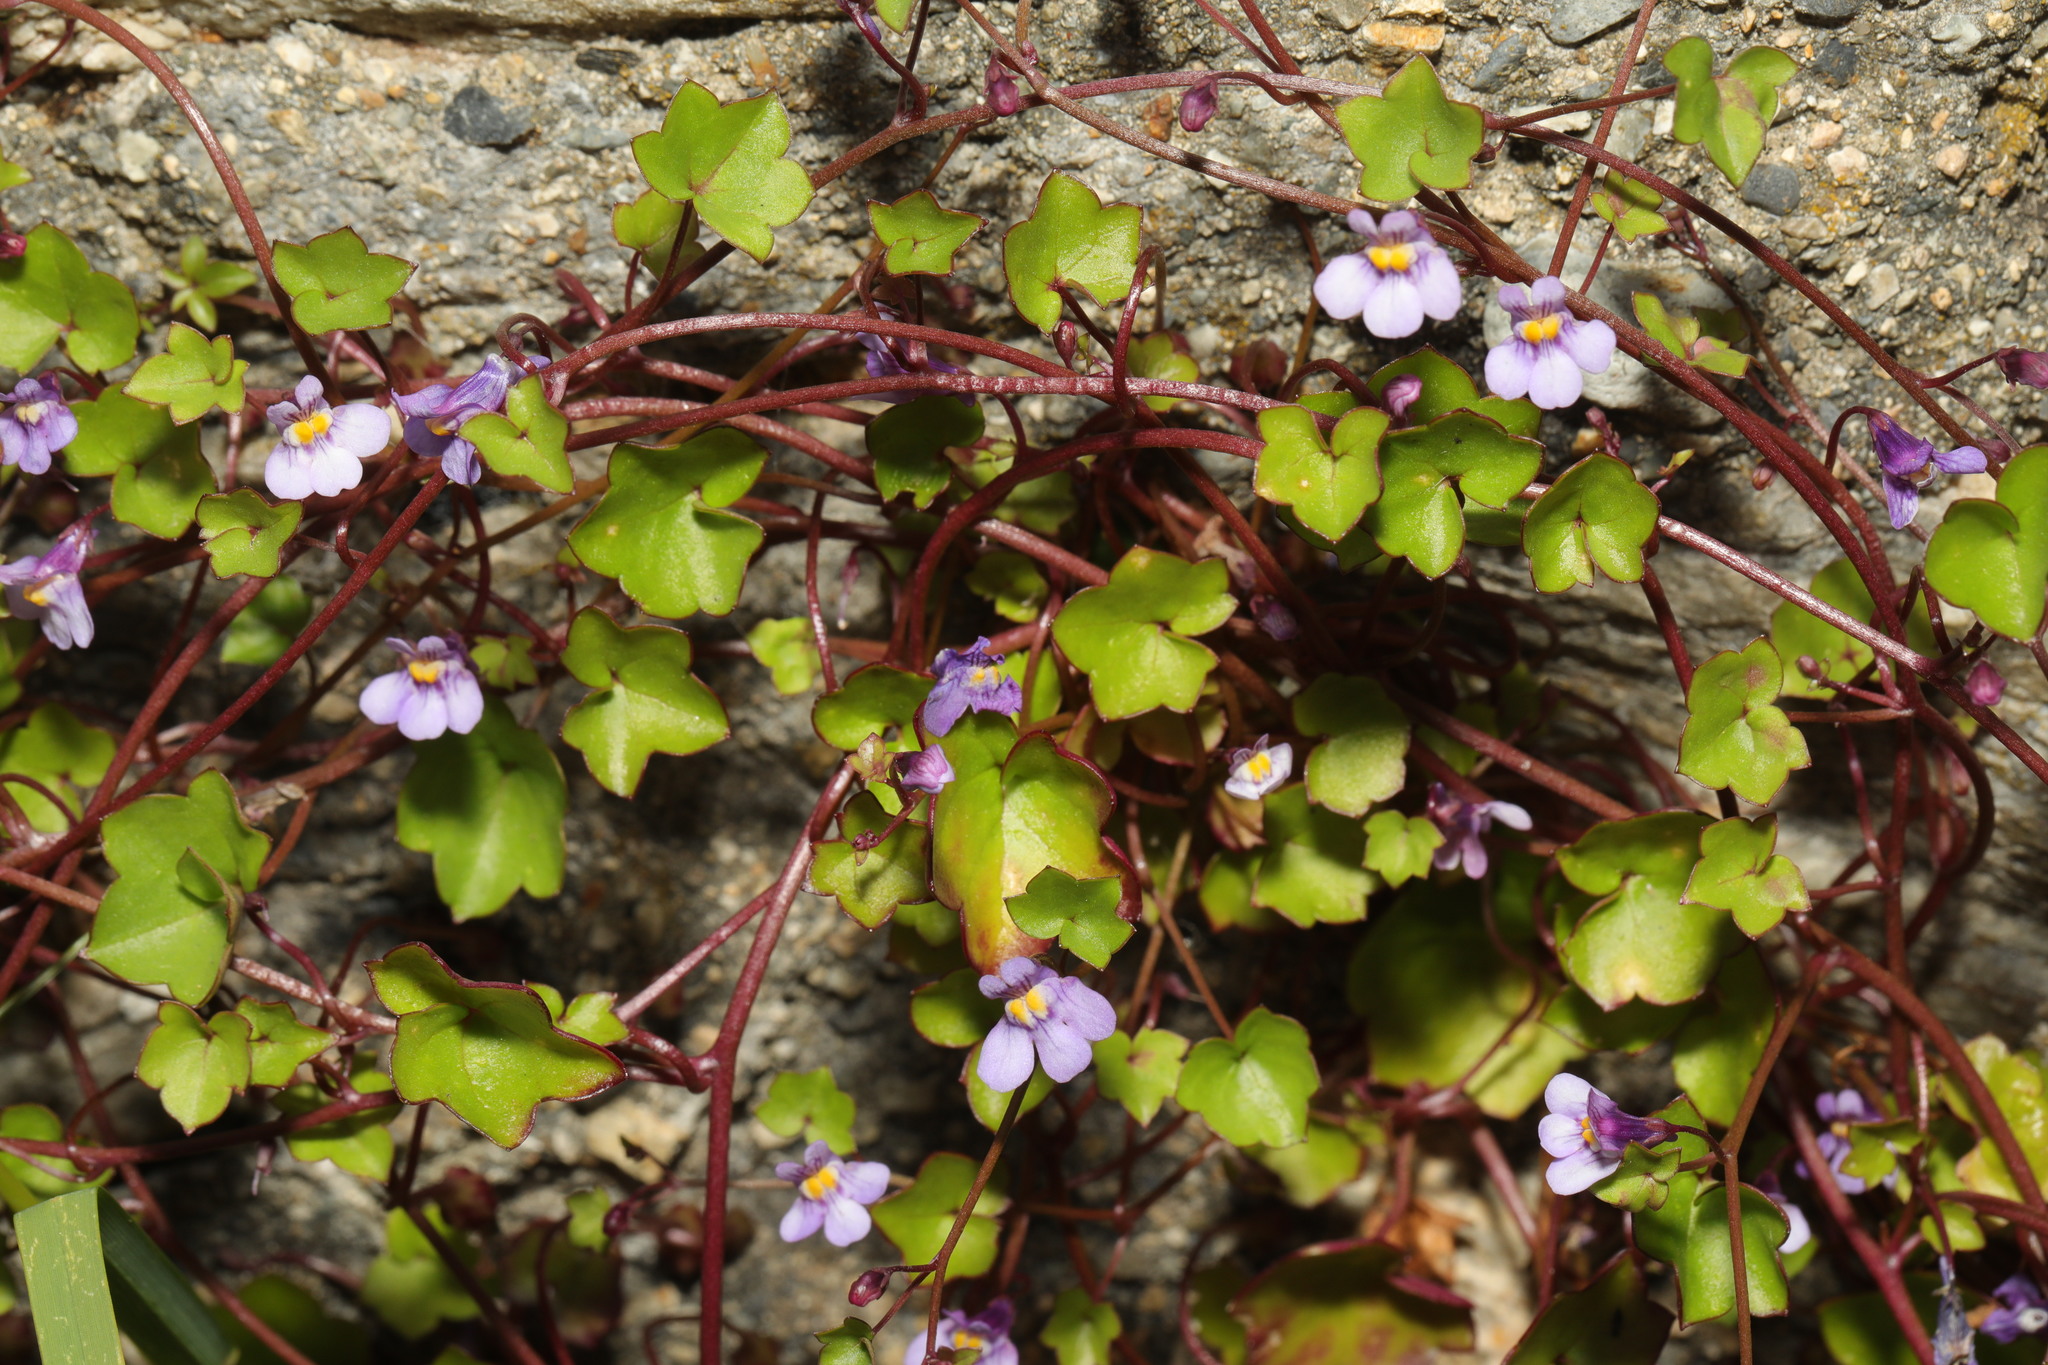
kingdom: Plantae
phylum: Tracheophyta
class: Magnoliopsida
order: Lamiales
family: Plantaginaceae
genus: Cymbalaria
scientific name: Cymbalaria muralis
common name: Ivy-leaved toadflax
